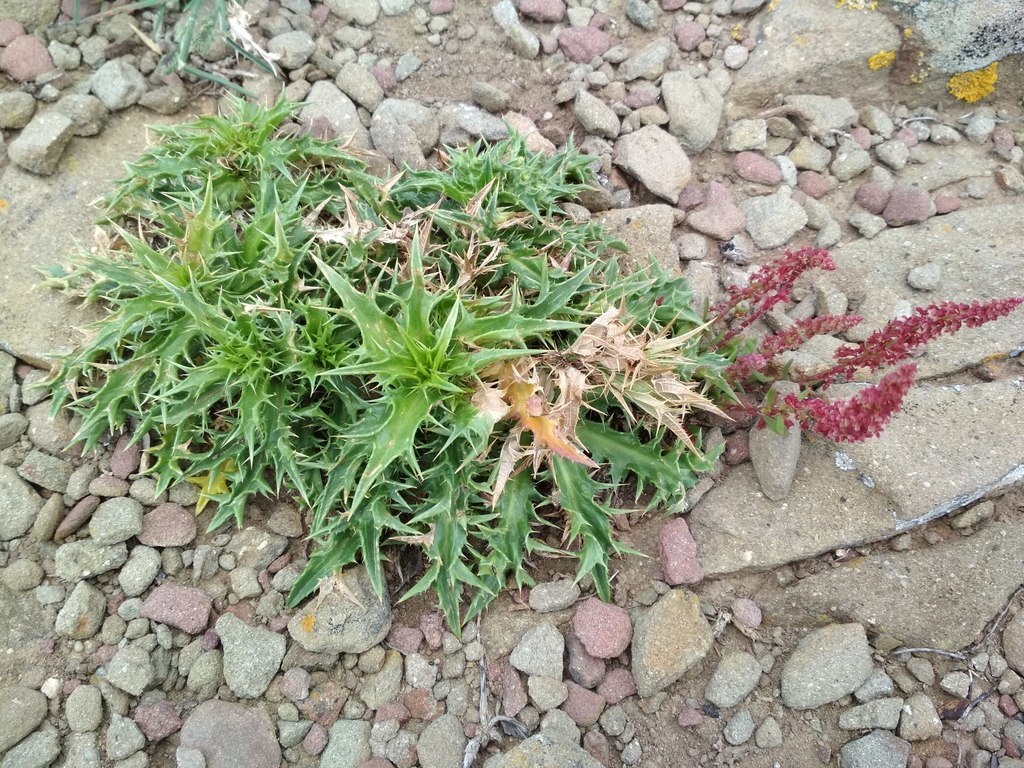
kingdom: Plantae
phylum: Tracheophyta
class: Magnoliopsida
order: Caryophyllales
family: Polygonaceae
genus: Rumex
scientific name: Rumex bucephalophorus
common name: Red dock
